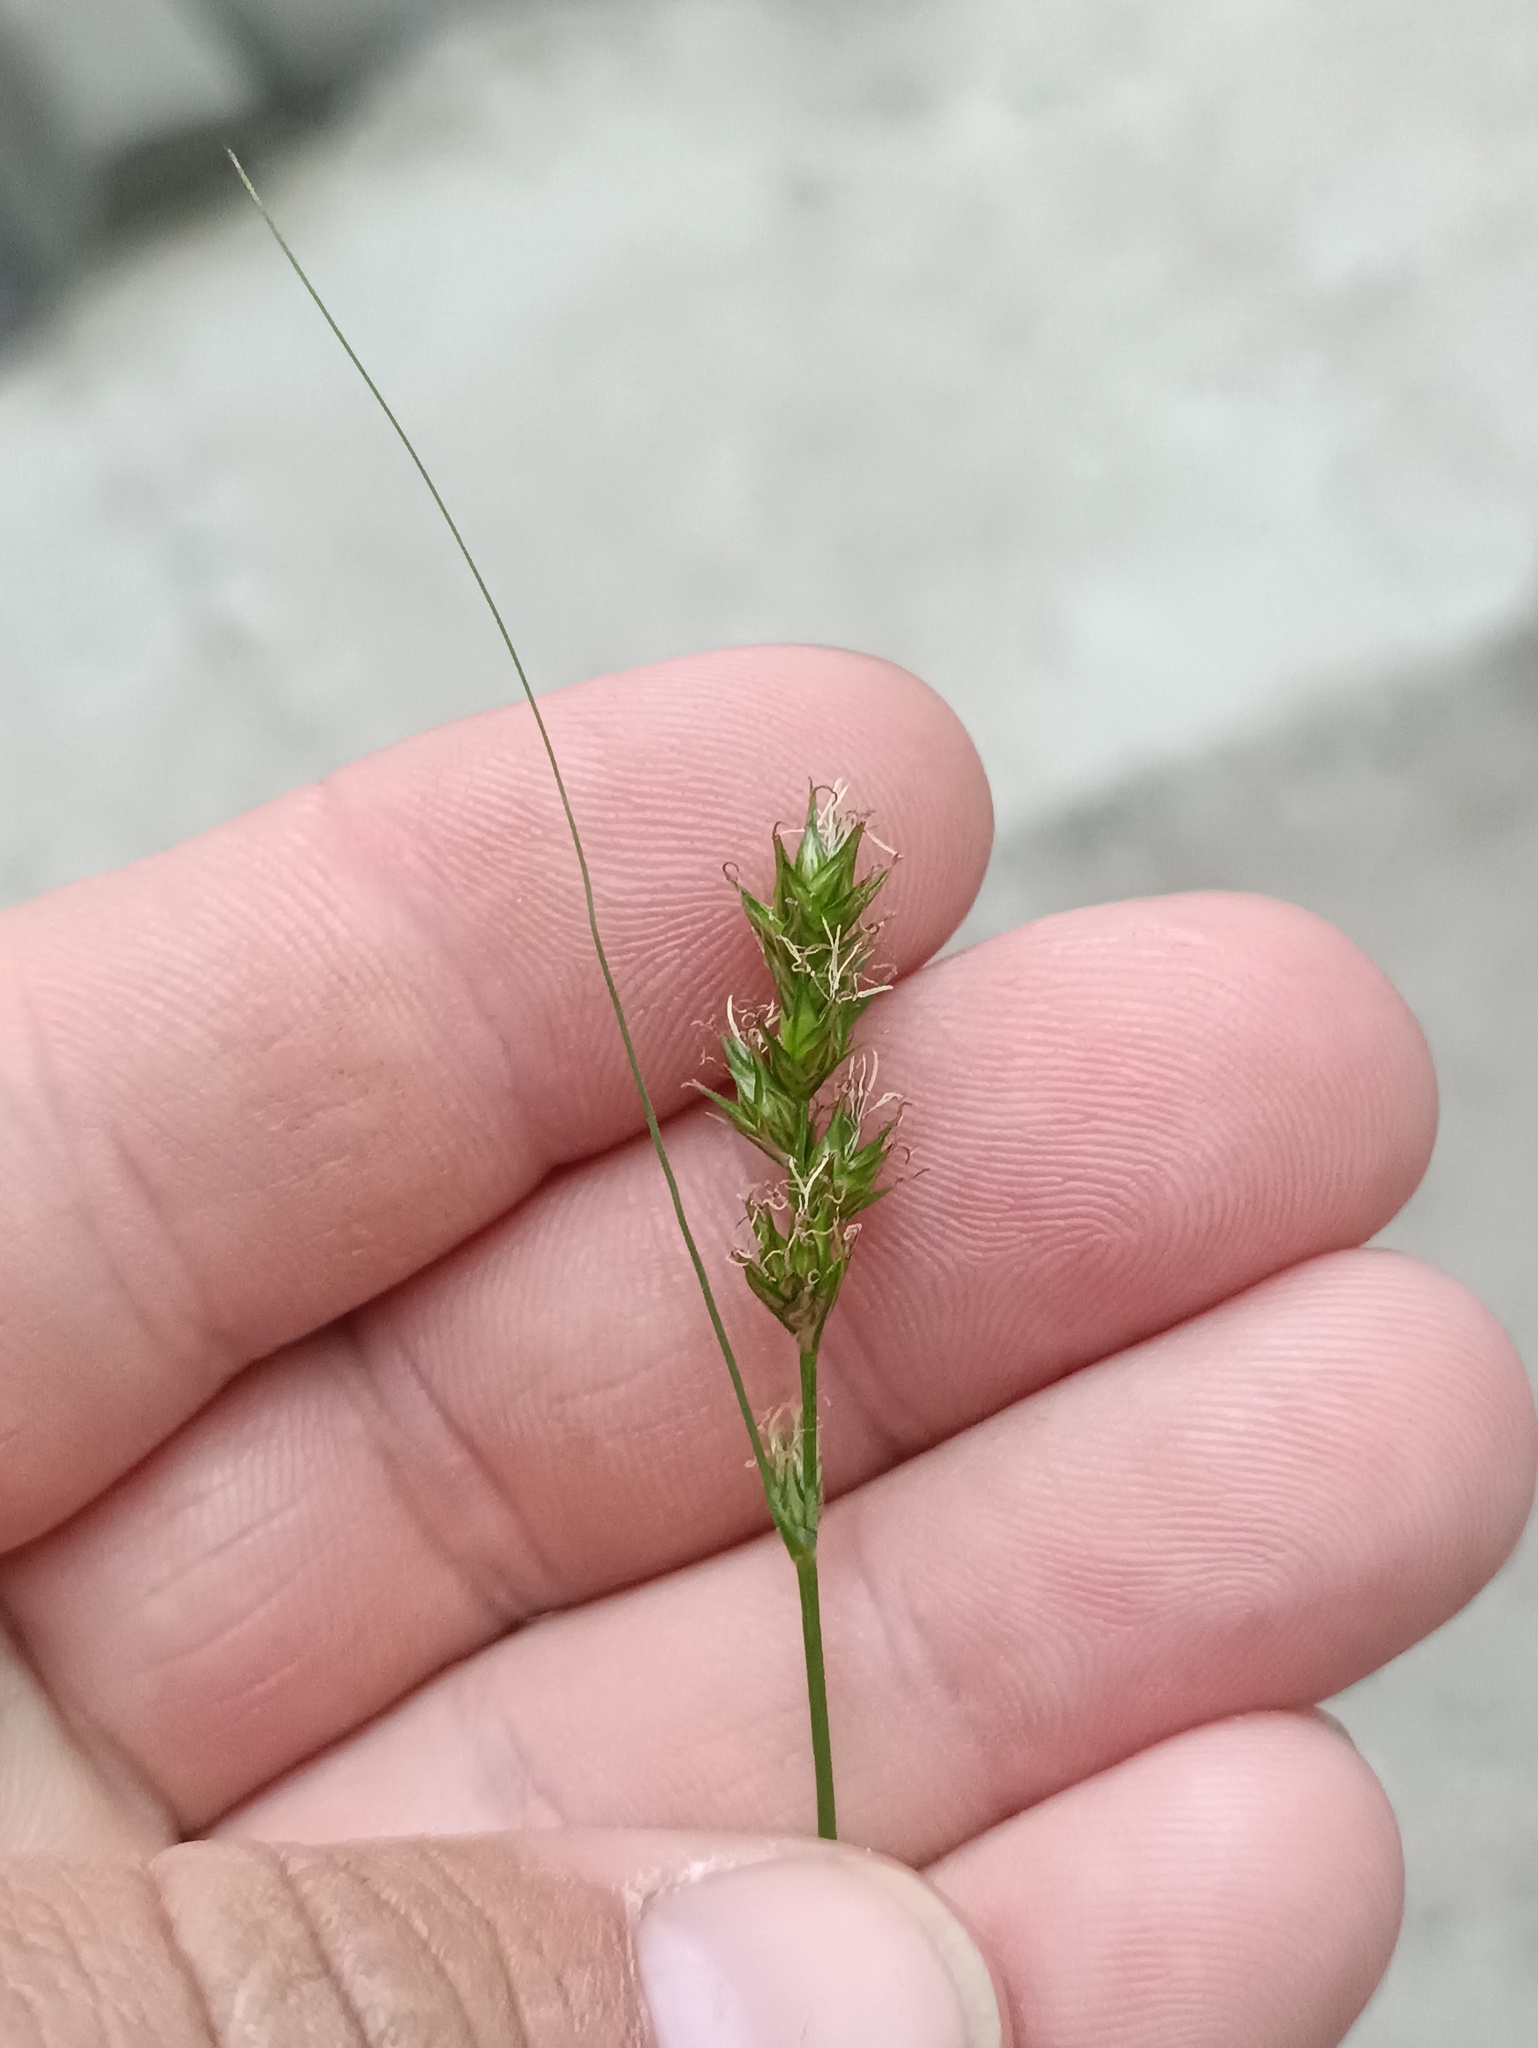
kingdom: Plantae
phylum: Tracheophyta
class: Liliopsida
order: Poales
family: Cyperaceae
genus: Carex
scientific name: Carex spicata
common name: Spiked sedge
